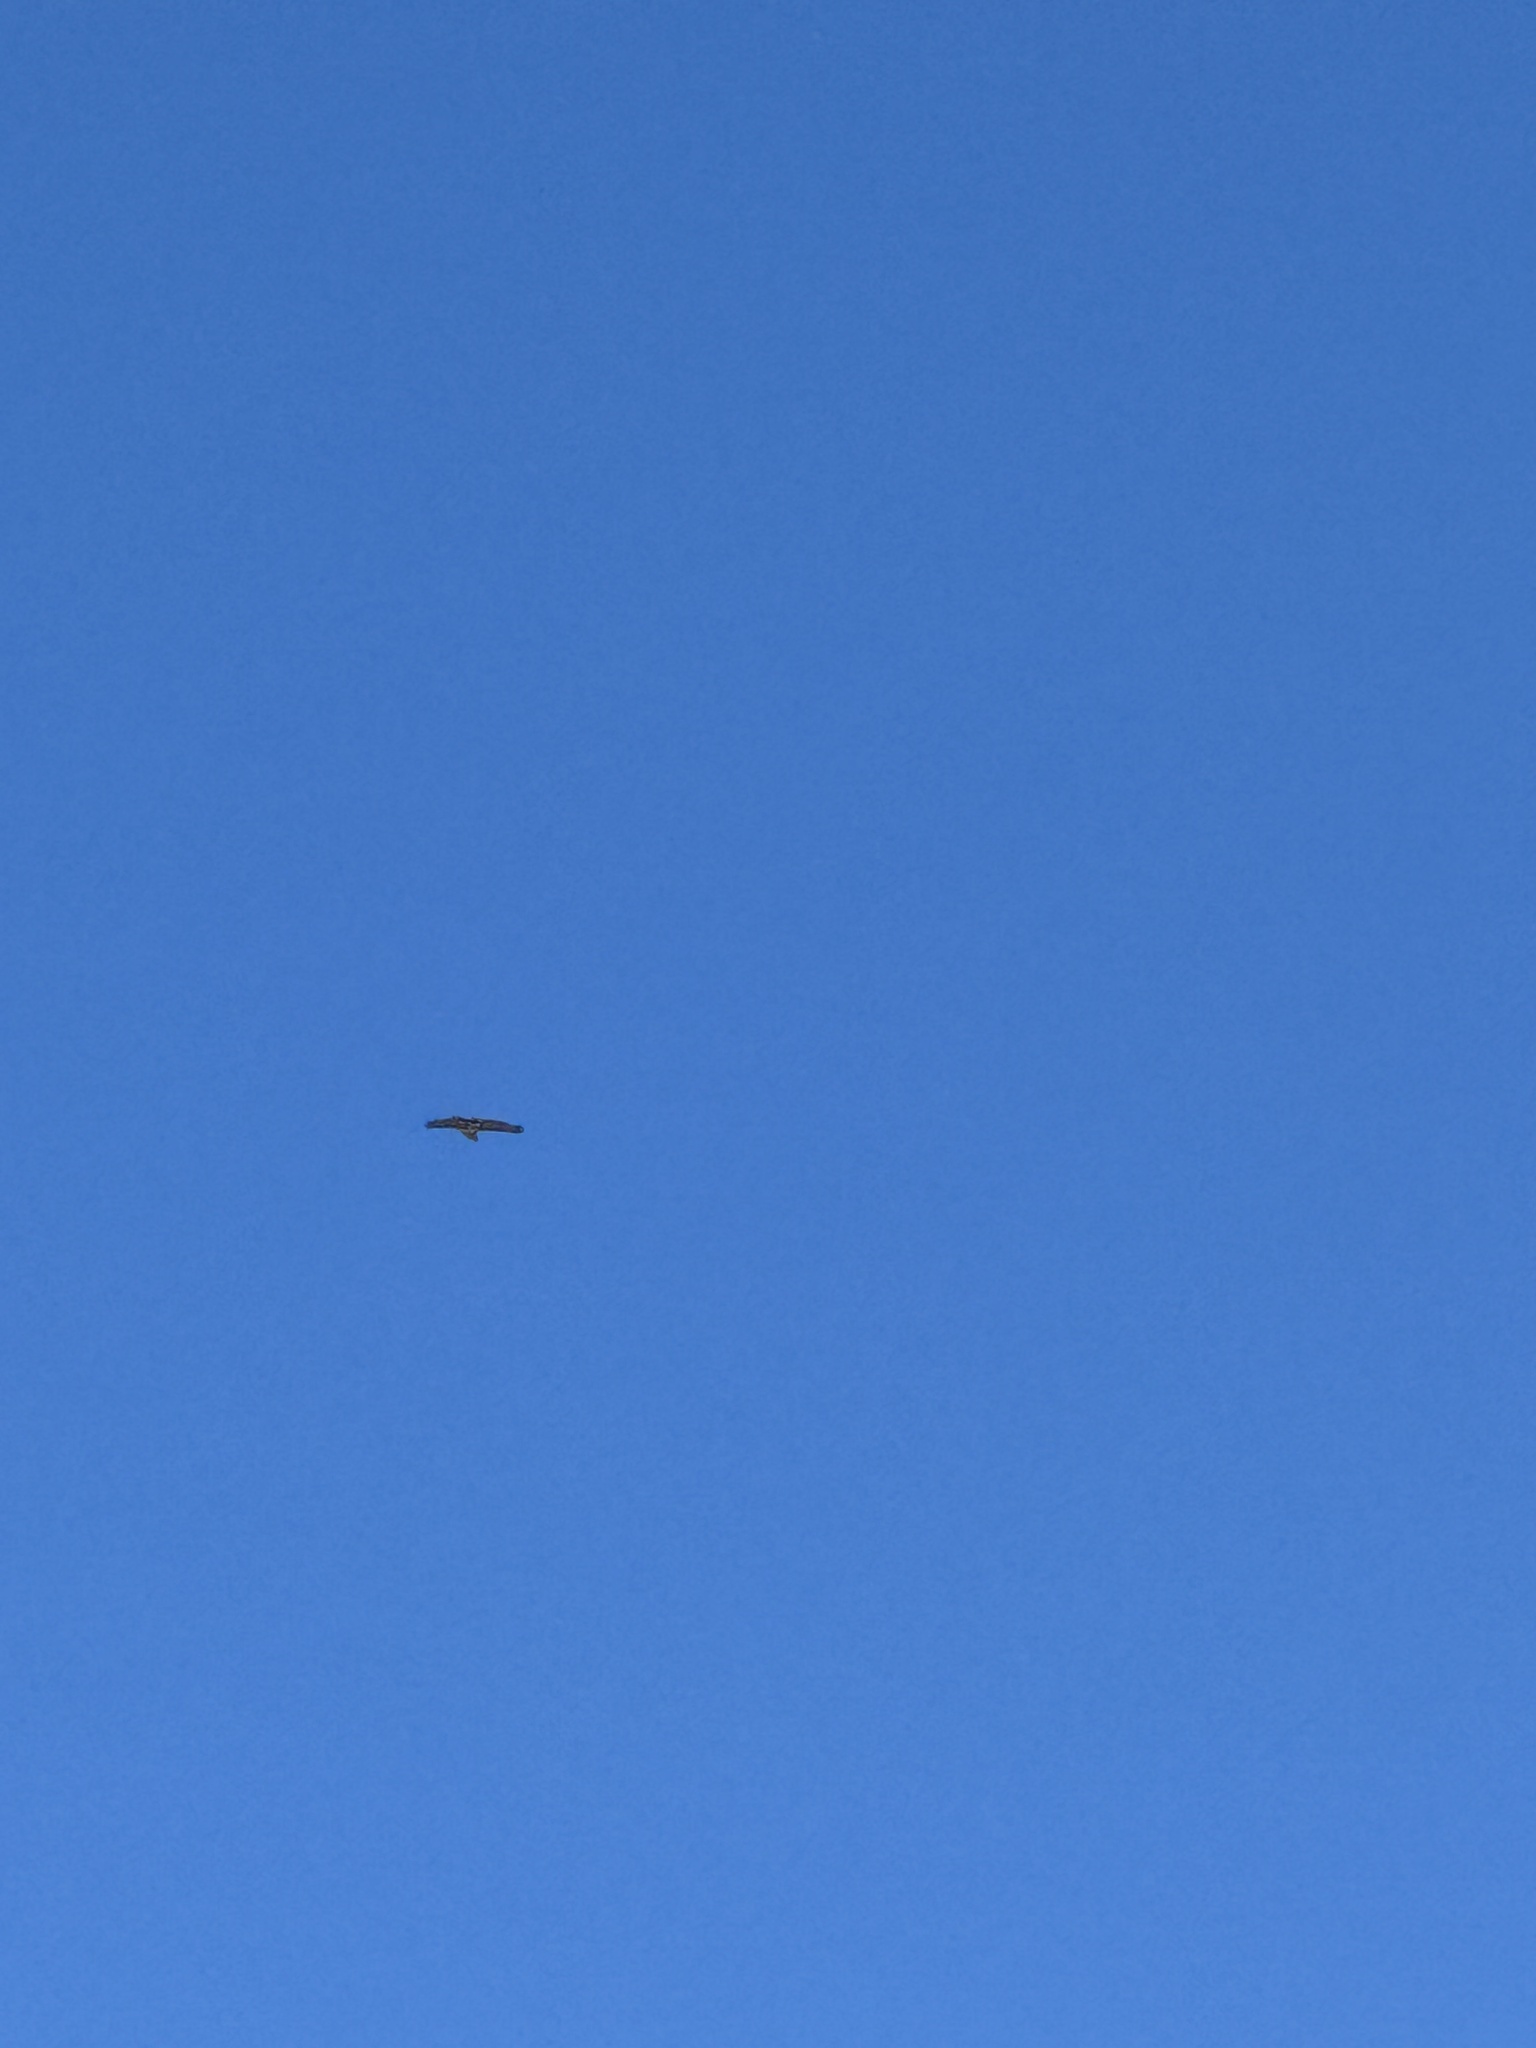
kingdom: Animalia
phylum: Chordata
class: Aves
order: Accipitriformes
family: Accipitridae
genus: Buteo
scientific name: Buteo jamaicensis
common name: Red-tailed hawk
